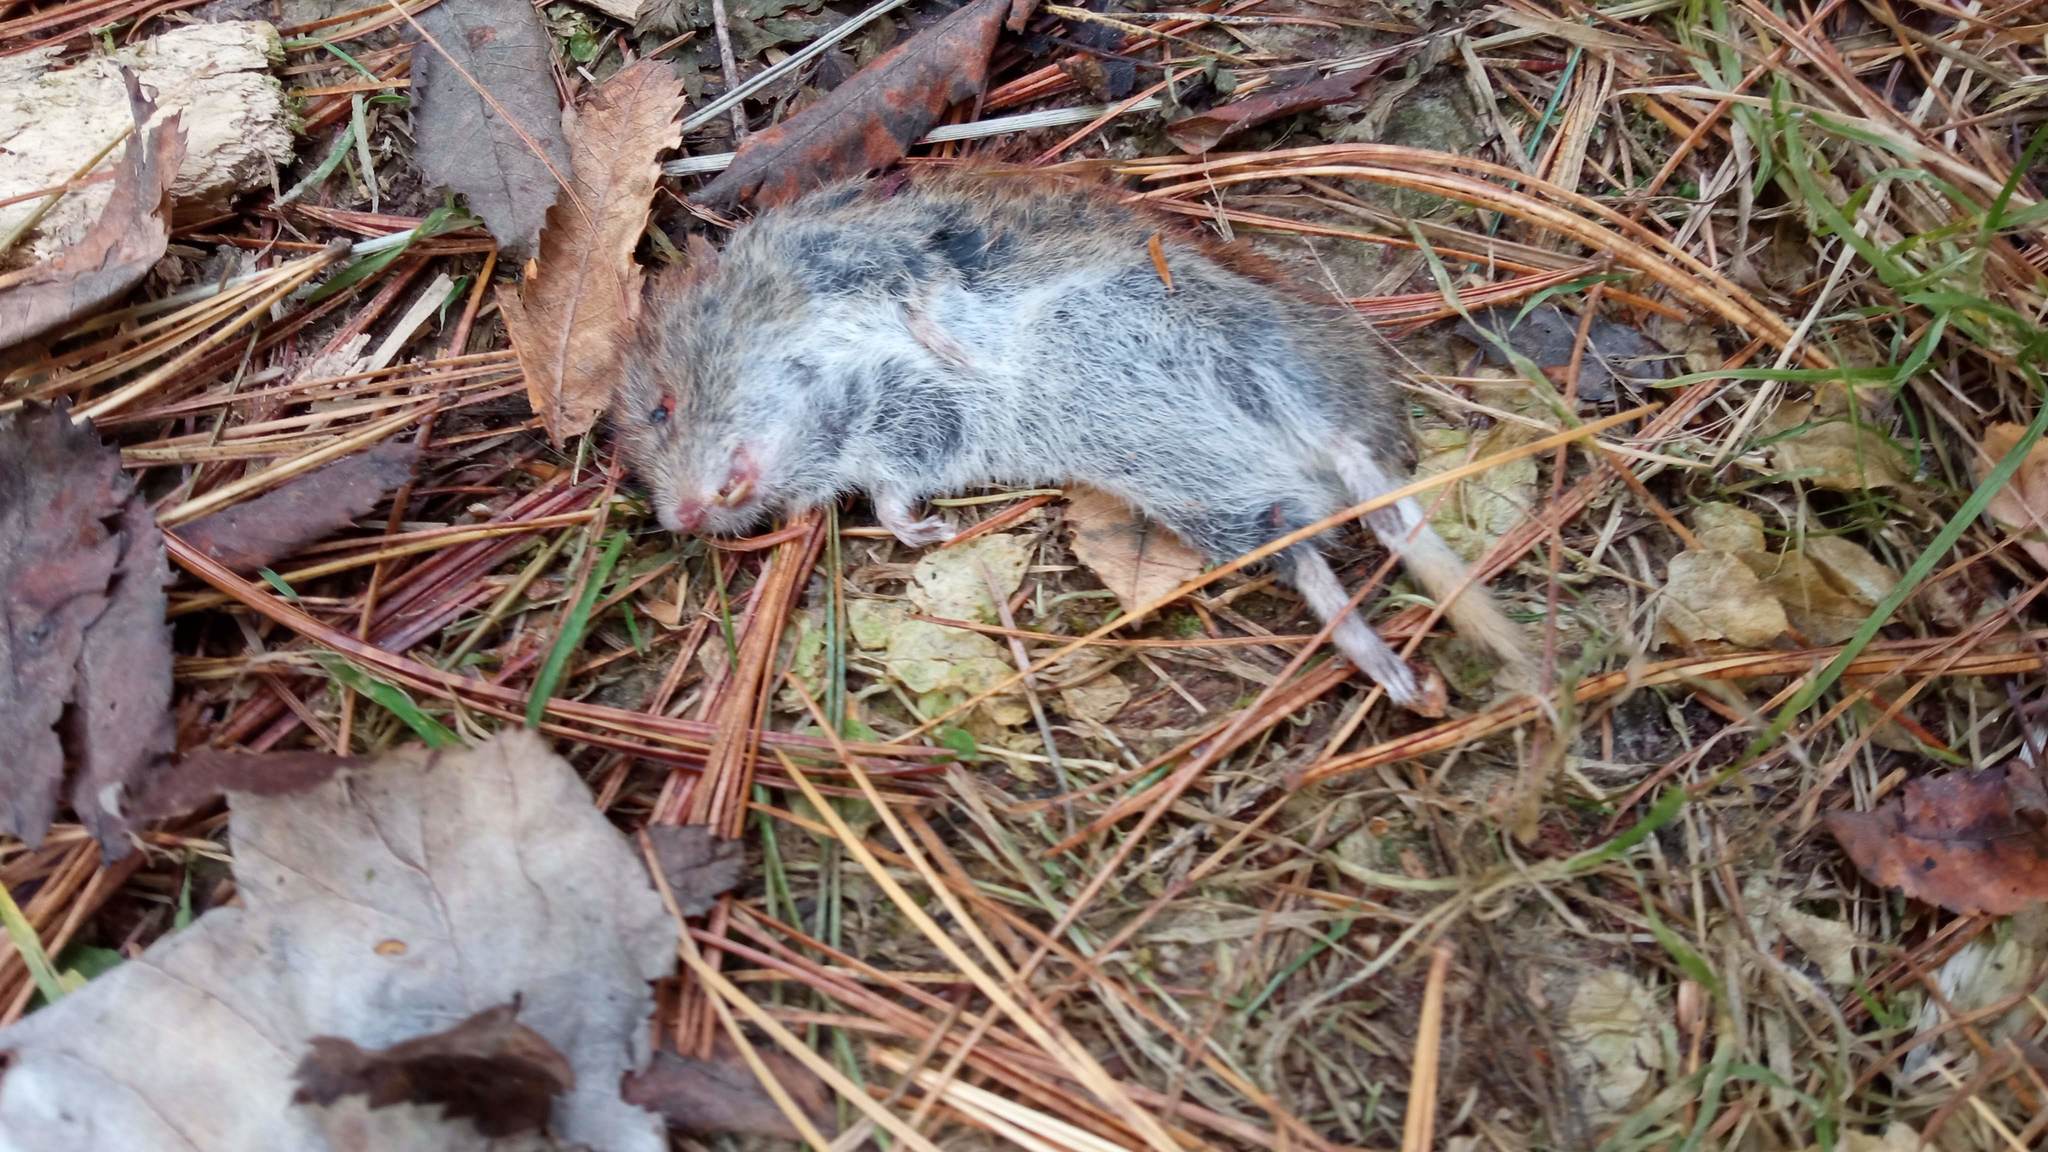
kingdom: Animalia
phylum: Chordata
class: Mammalia
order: Rodentia
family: Cricetidae
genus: Myodes
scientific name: Myodes rutilus
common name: Northern red-backed vole
